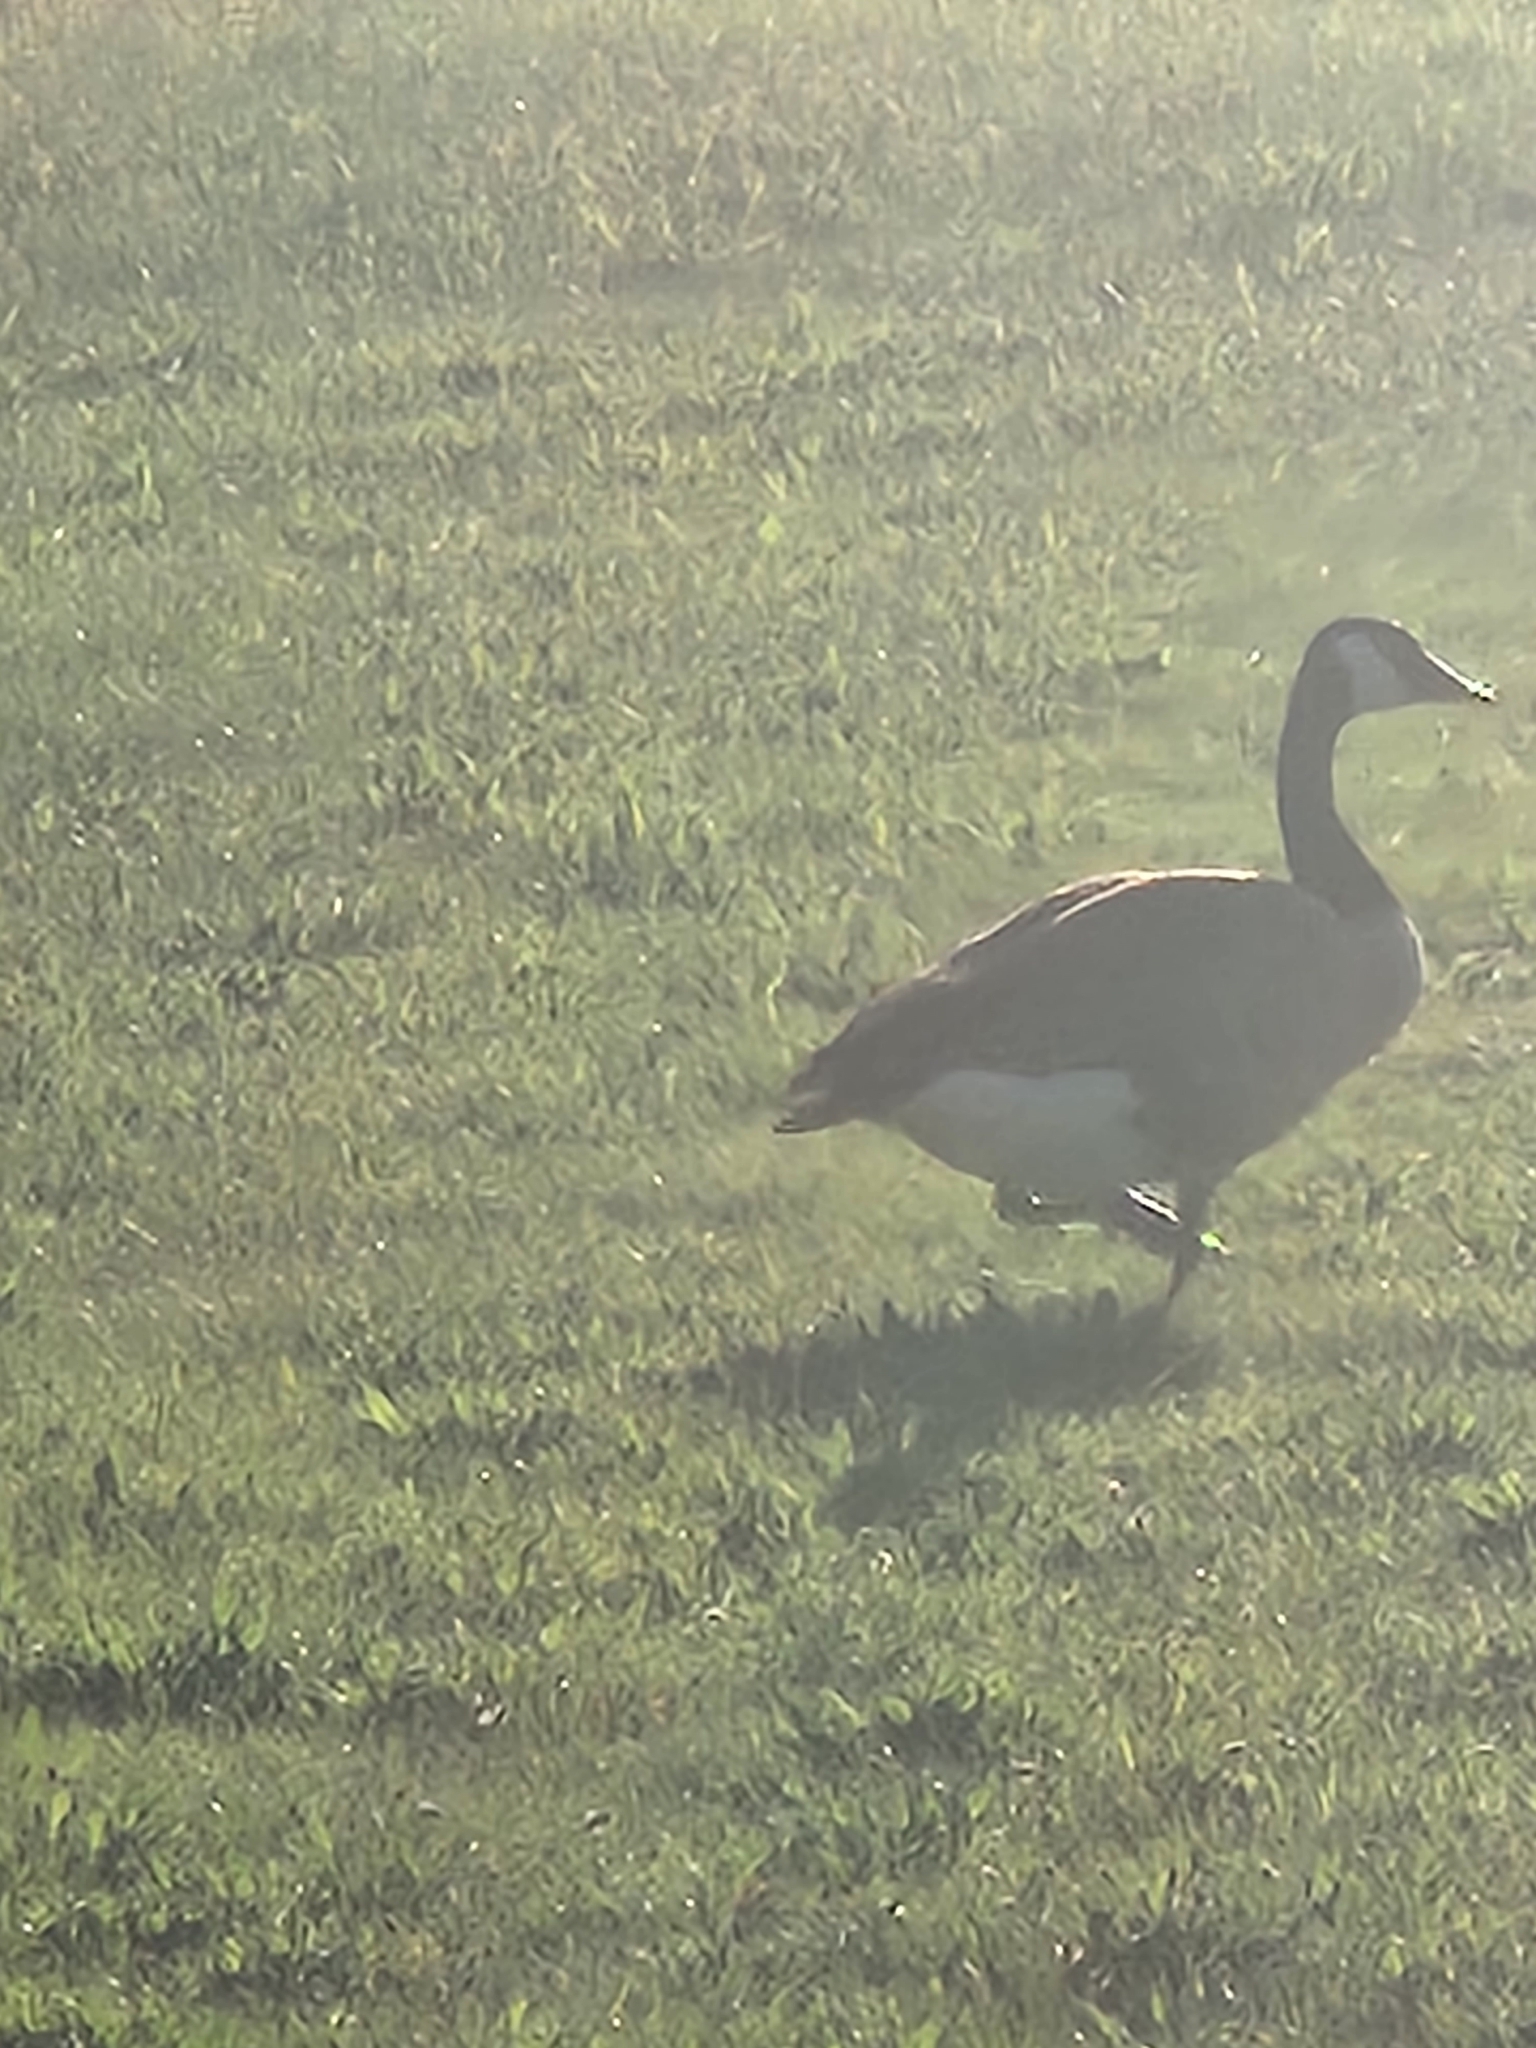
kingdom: Animalia
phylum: Chordata
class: Aves
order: Anseriformes
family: Anatidae
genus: Branta
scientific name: Branta canadensis
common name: Canada goose
